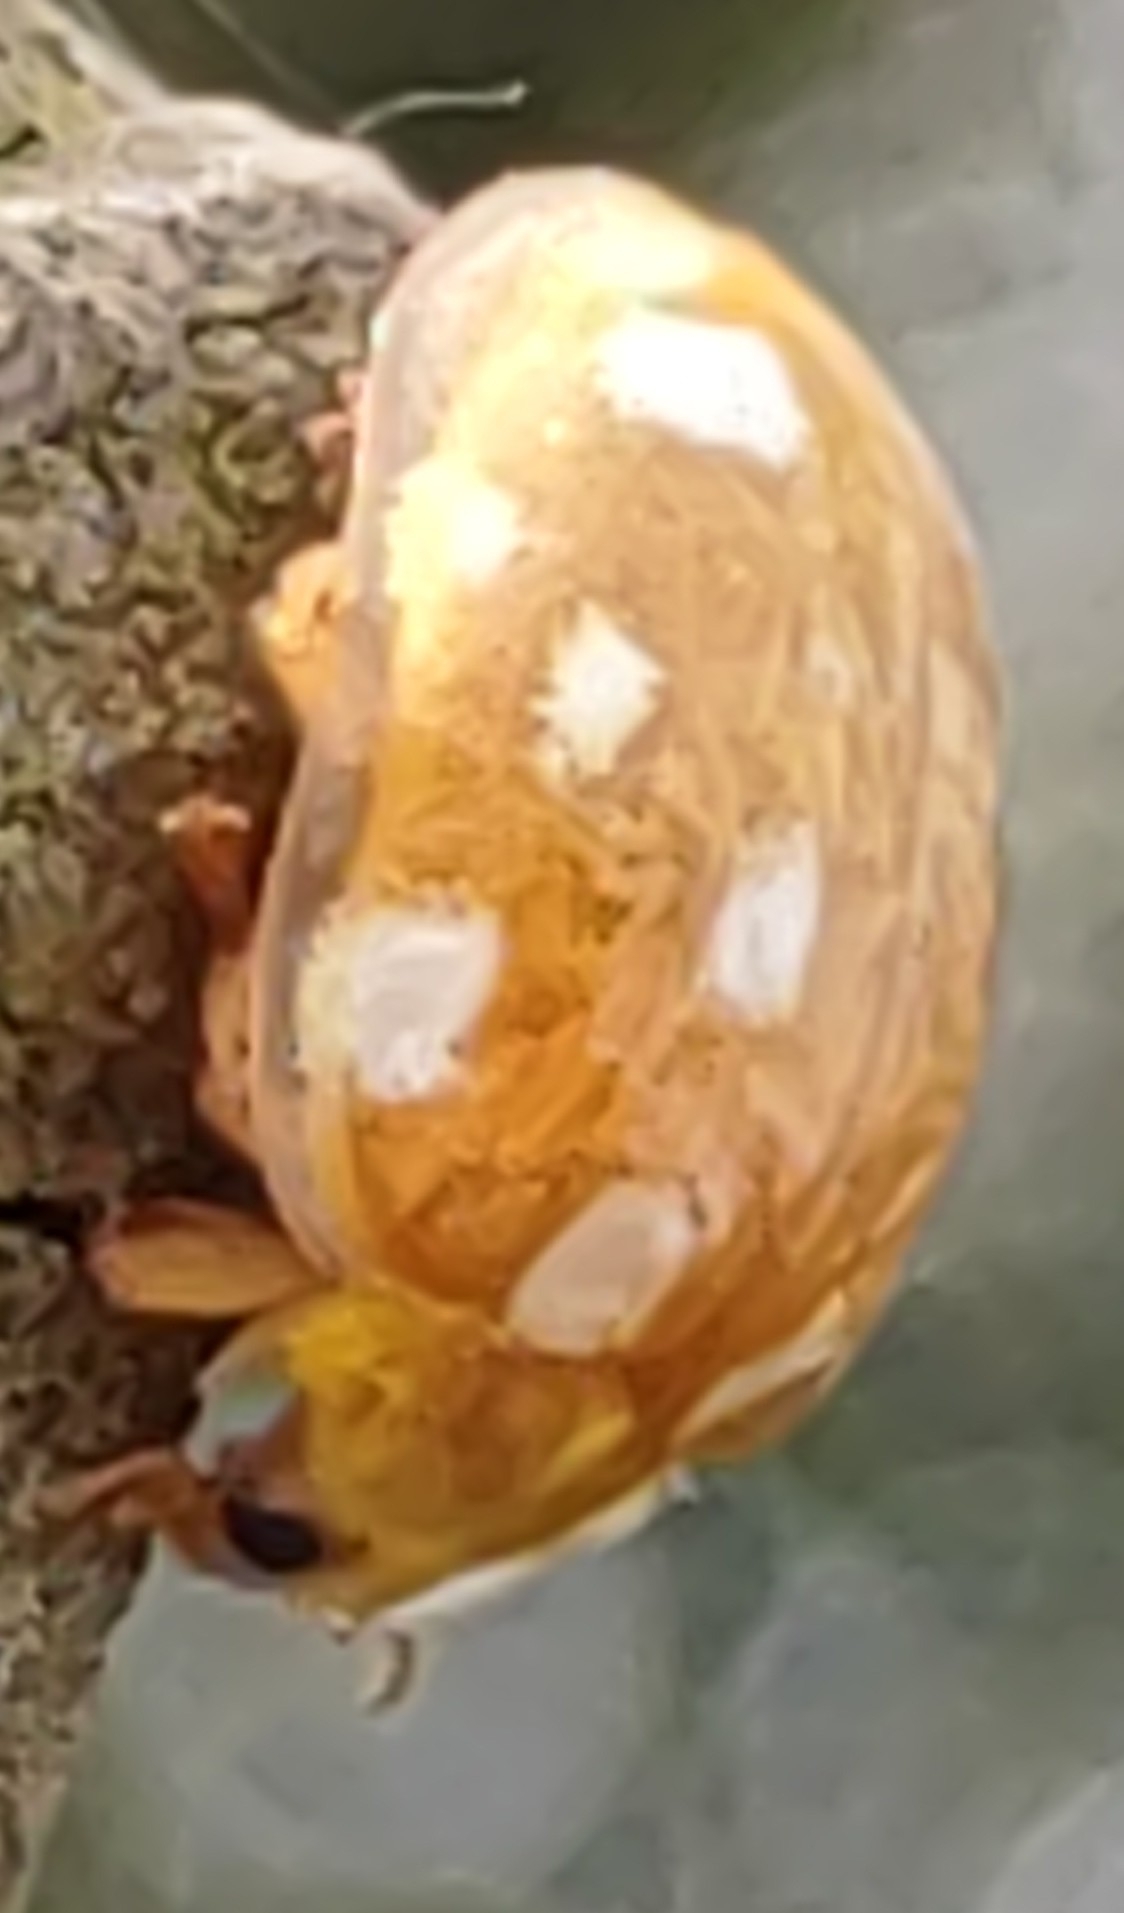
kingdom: Animalia
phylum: Arthropoda
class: Insecta
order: Coleoptera
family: Coccinellidae
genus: Halyzia
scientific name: Halyzia sedecimguttata
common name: Orange ladybird
